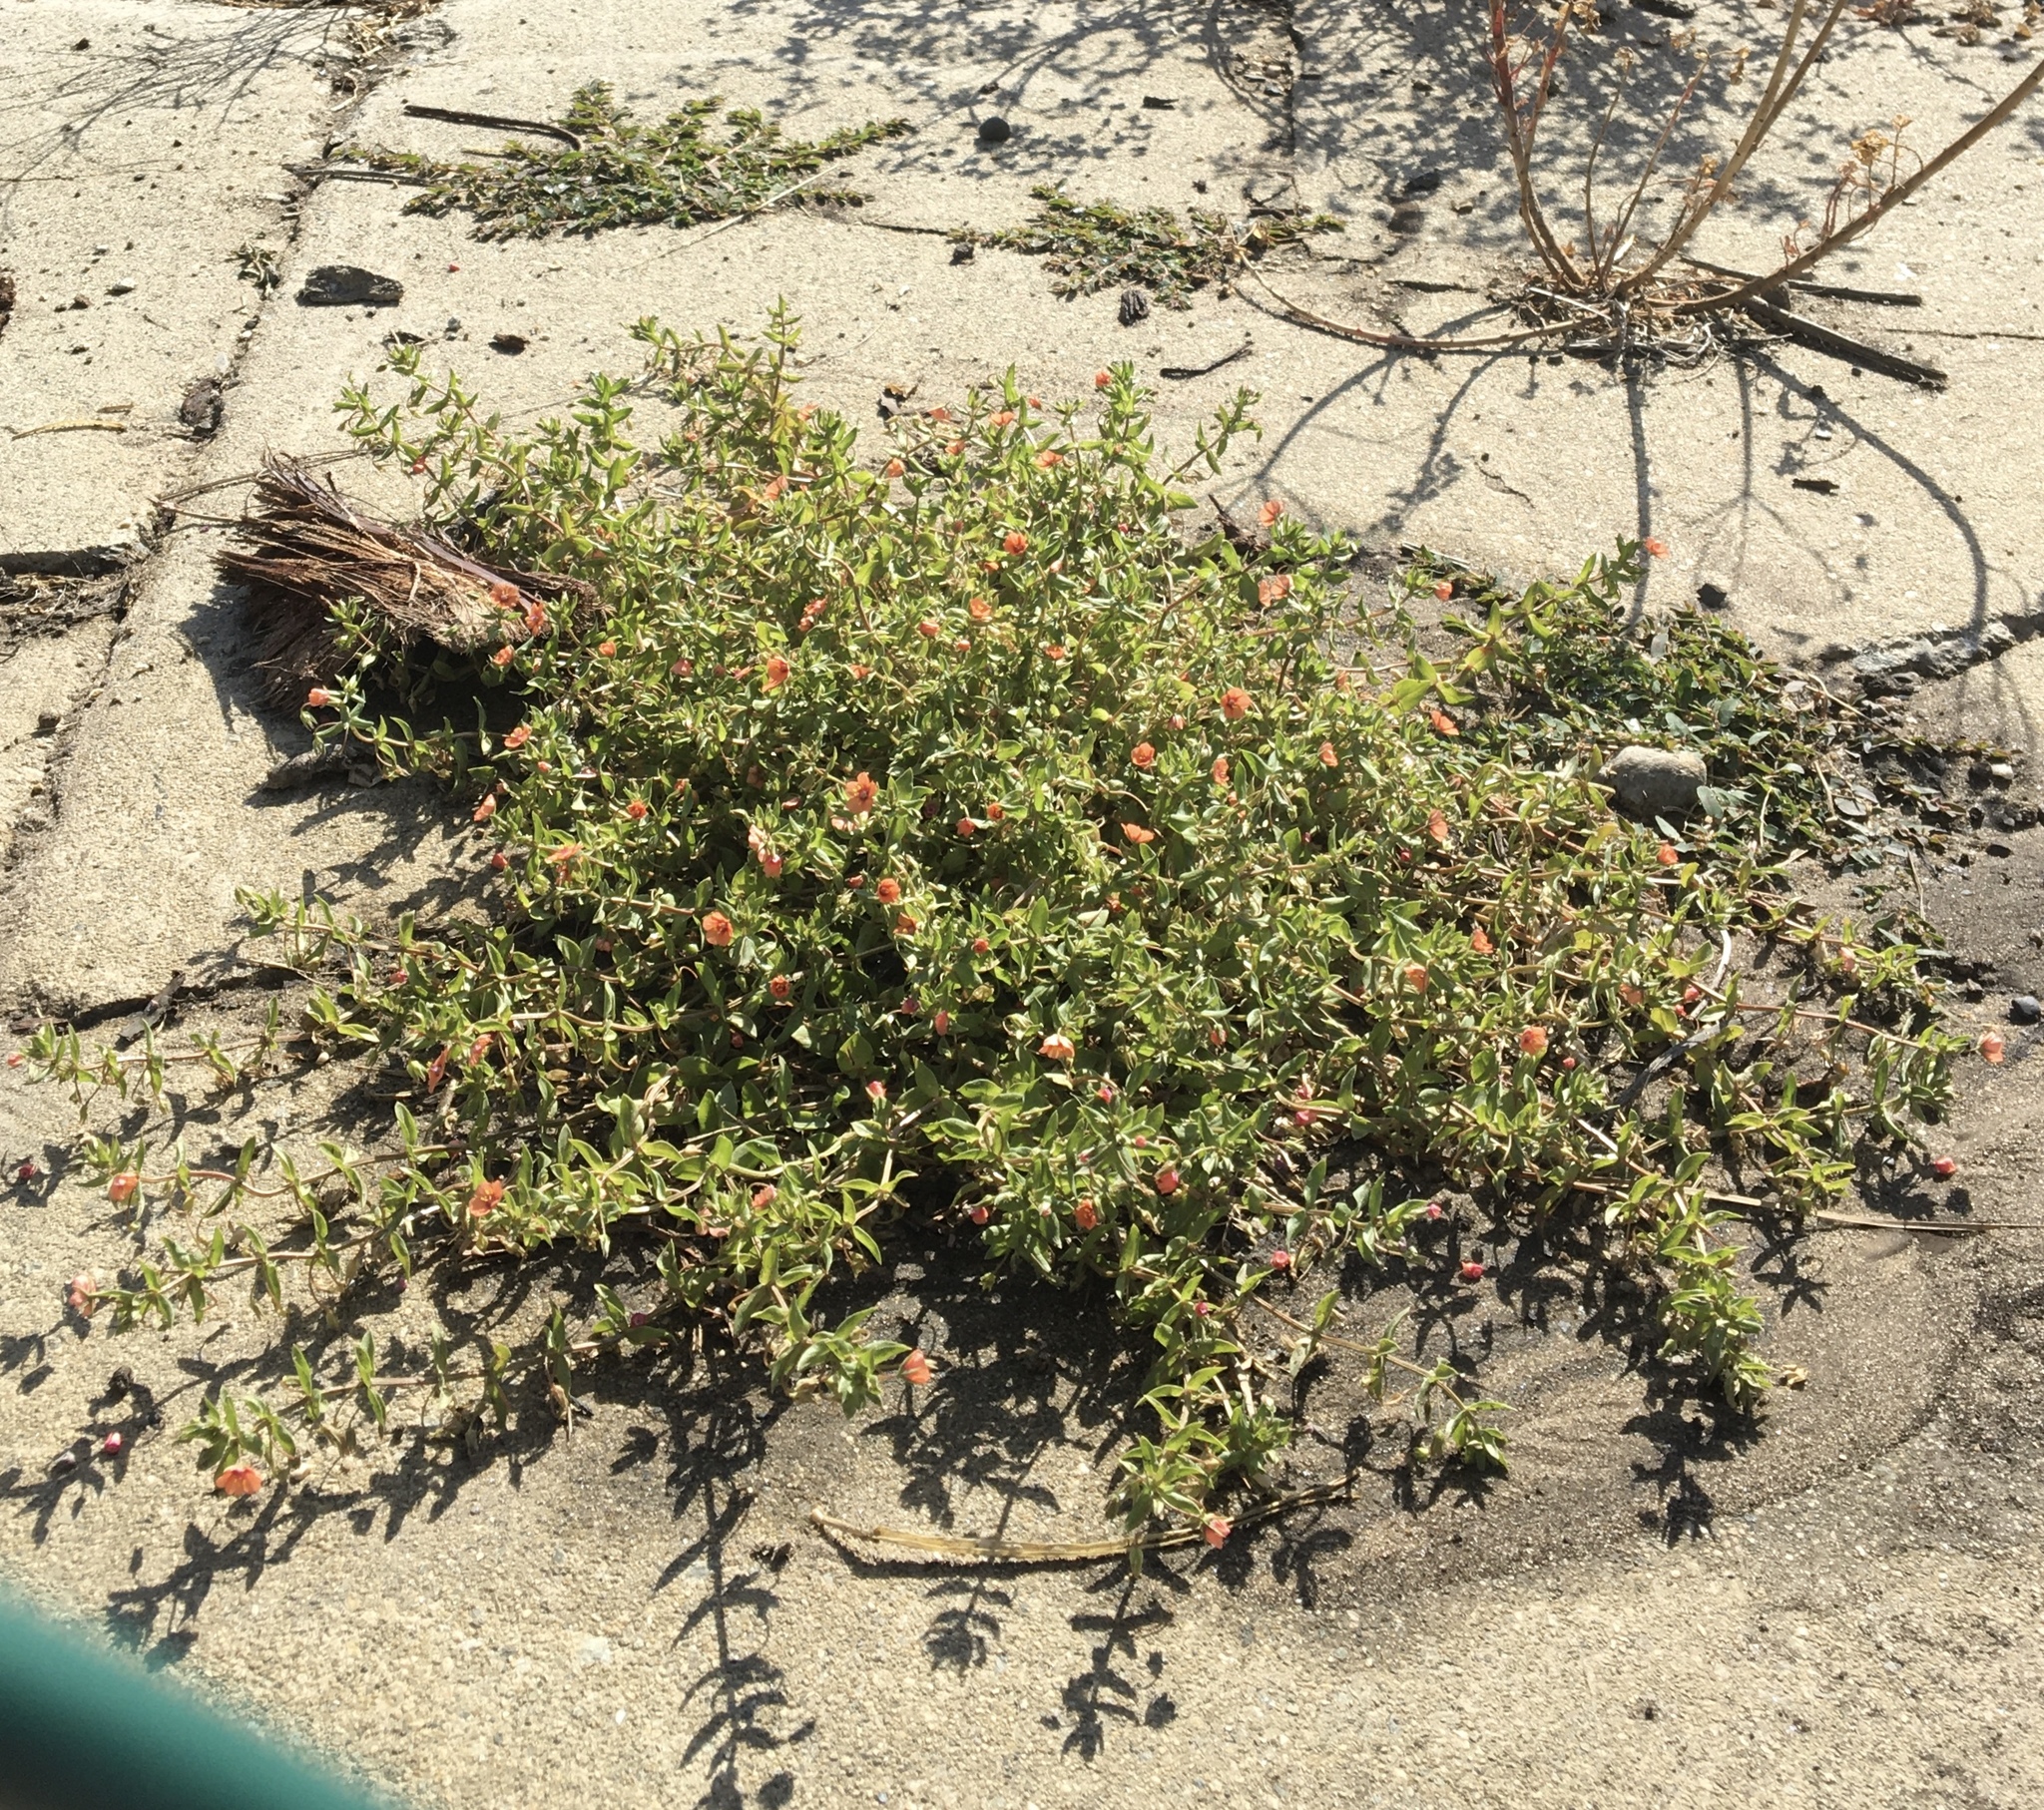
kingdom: Plantae
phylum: Tracheophyta
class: Magnoliopsida
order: Ericales
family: Primulaceae
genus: Lysimachia
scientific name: Lysimachia arvensis
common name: Scarlet pimpernel
